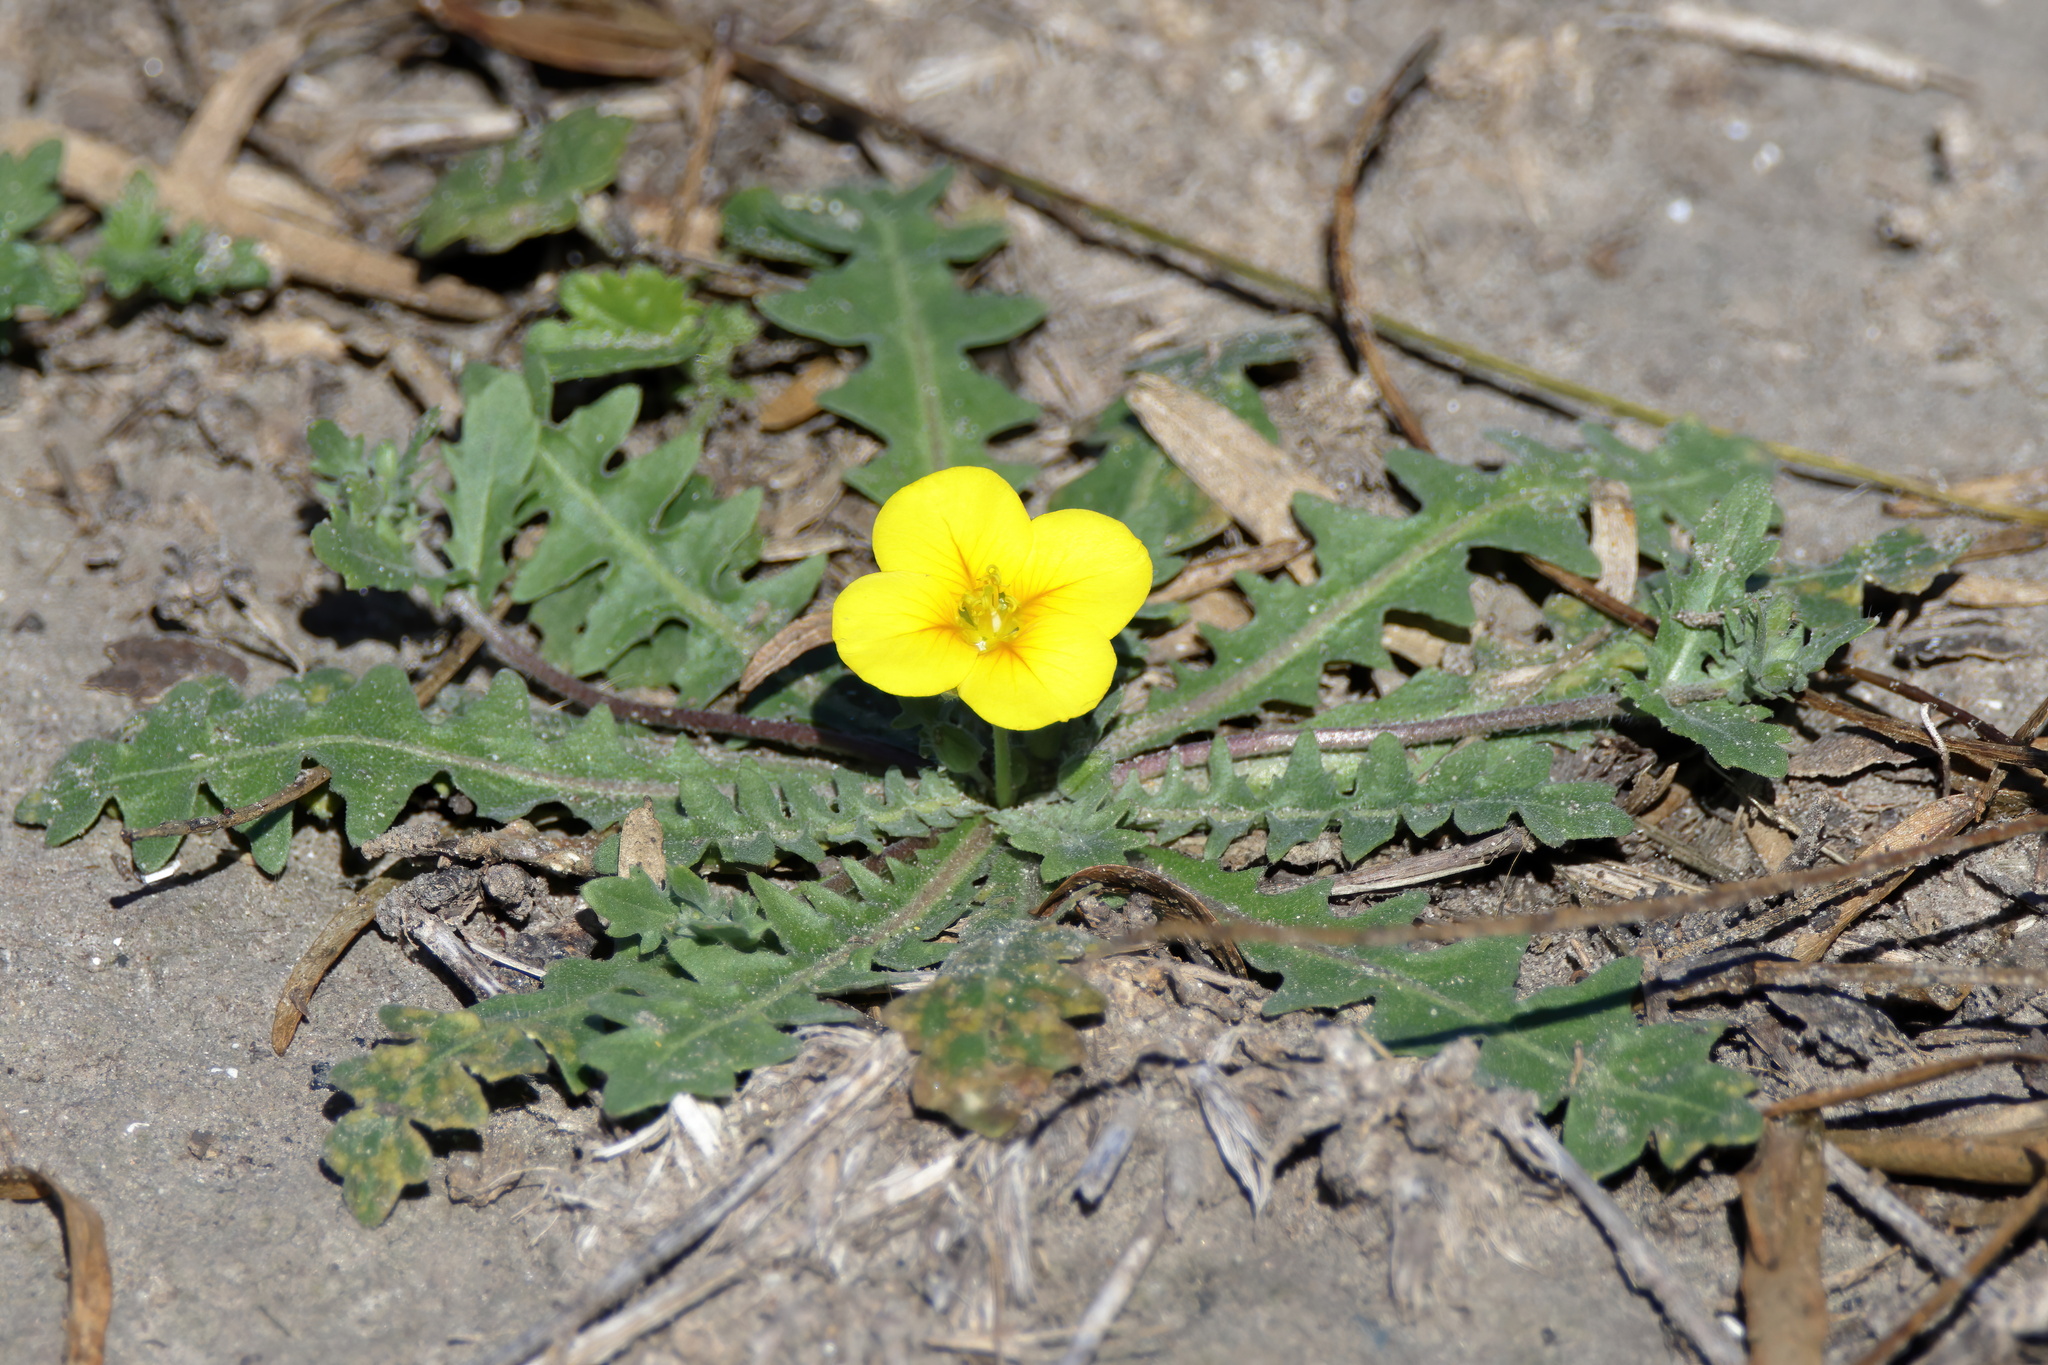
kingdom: Plantae
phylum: Tracheophyta
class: Magnoliopsida
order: Brassicales
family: Brassicaceae
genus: Paysonia
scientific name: Paysonia grandiflora
